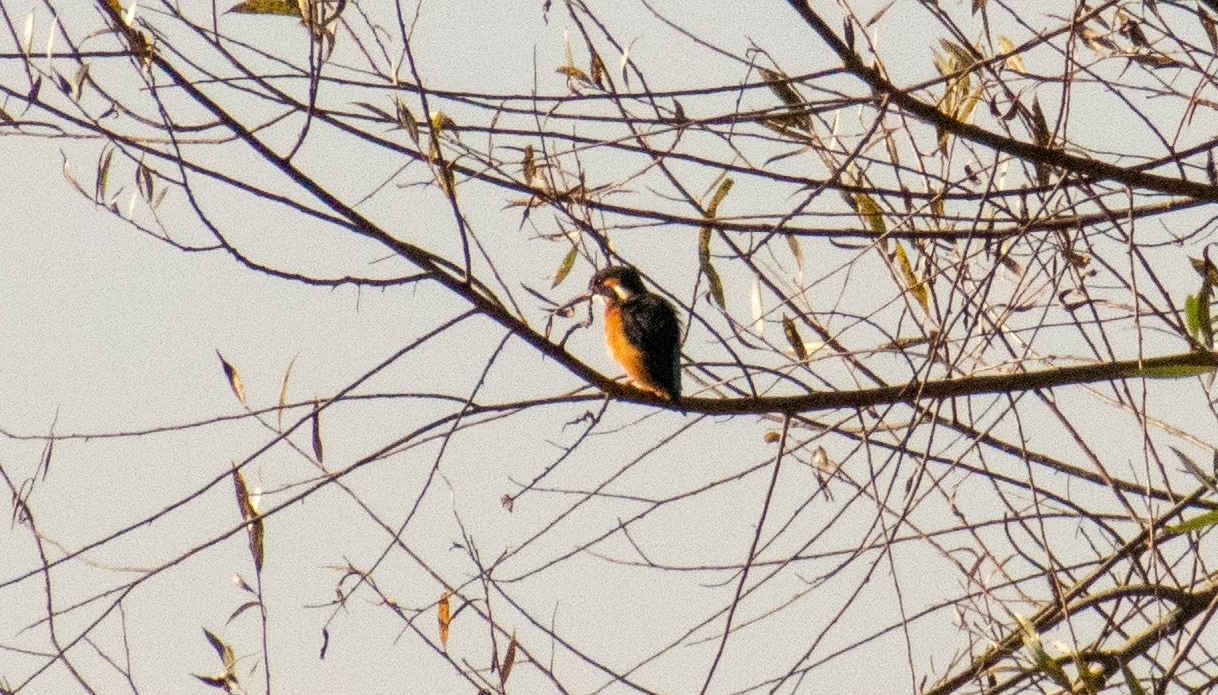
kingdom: Animalia
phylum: Chordata
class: Aves
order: Coraciiformes
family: Alcedinidae
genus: Alcedo
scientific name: Alcedo atthis
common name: Common kingfisher
